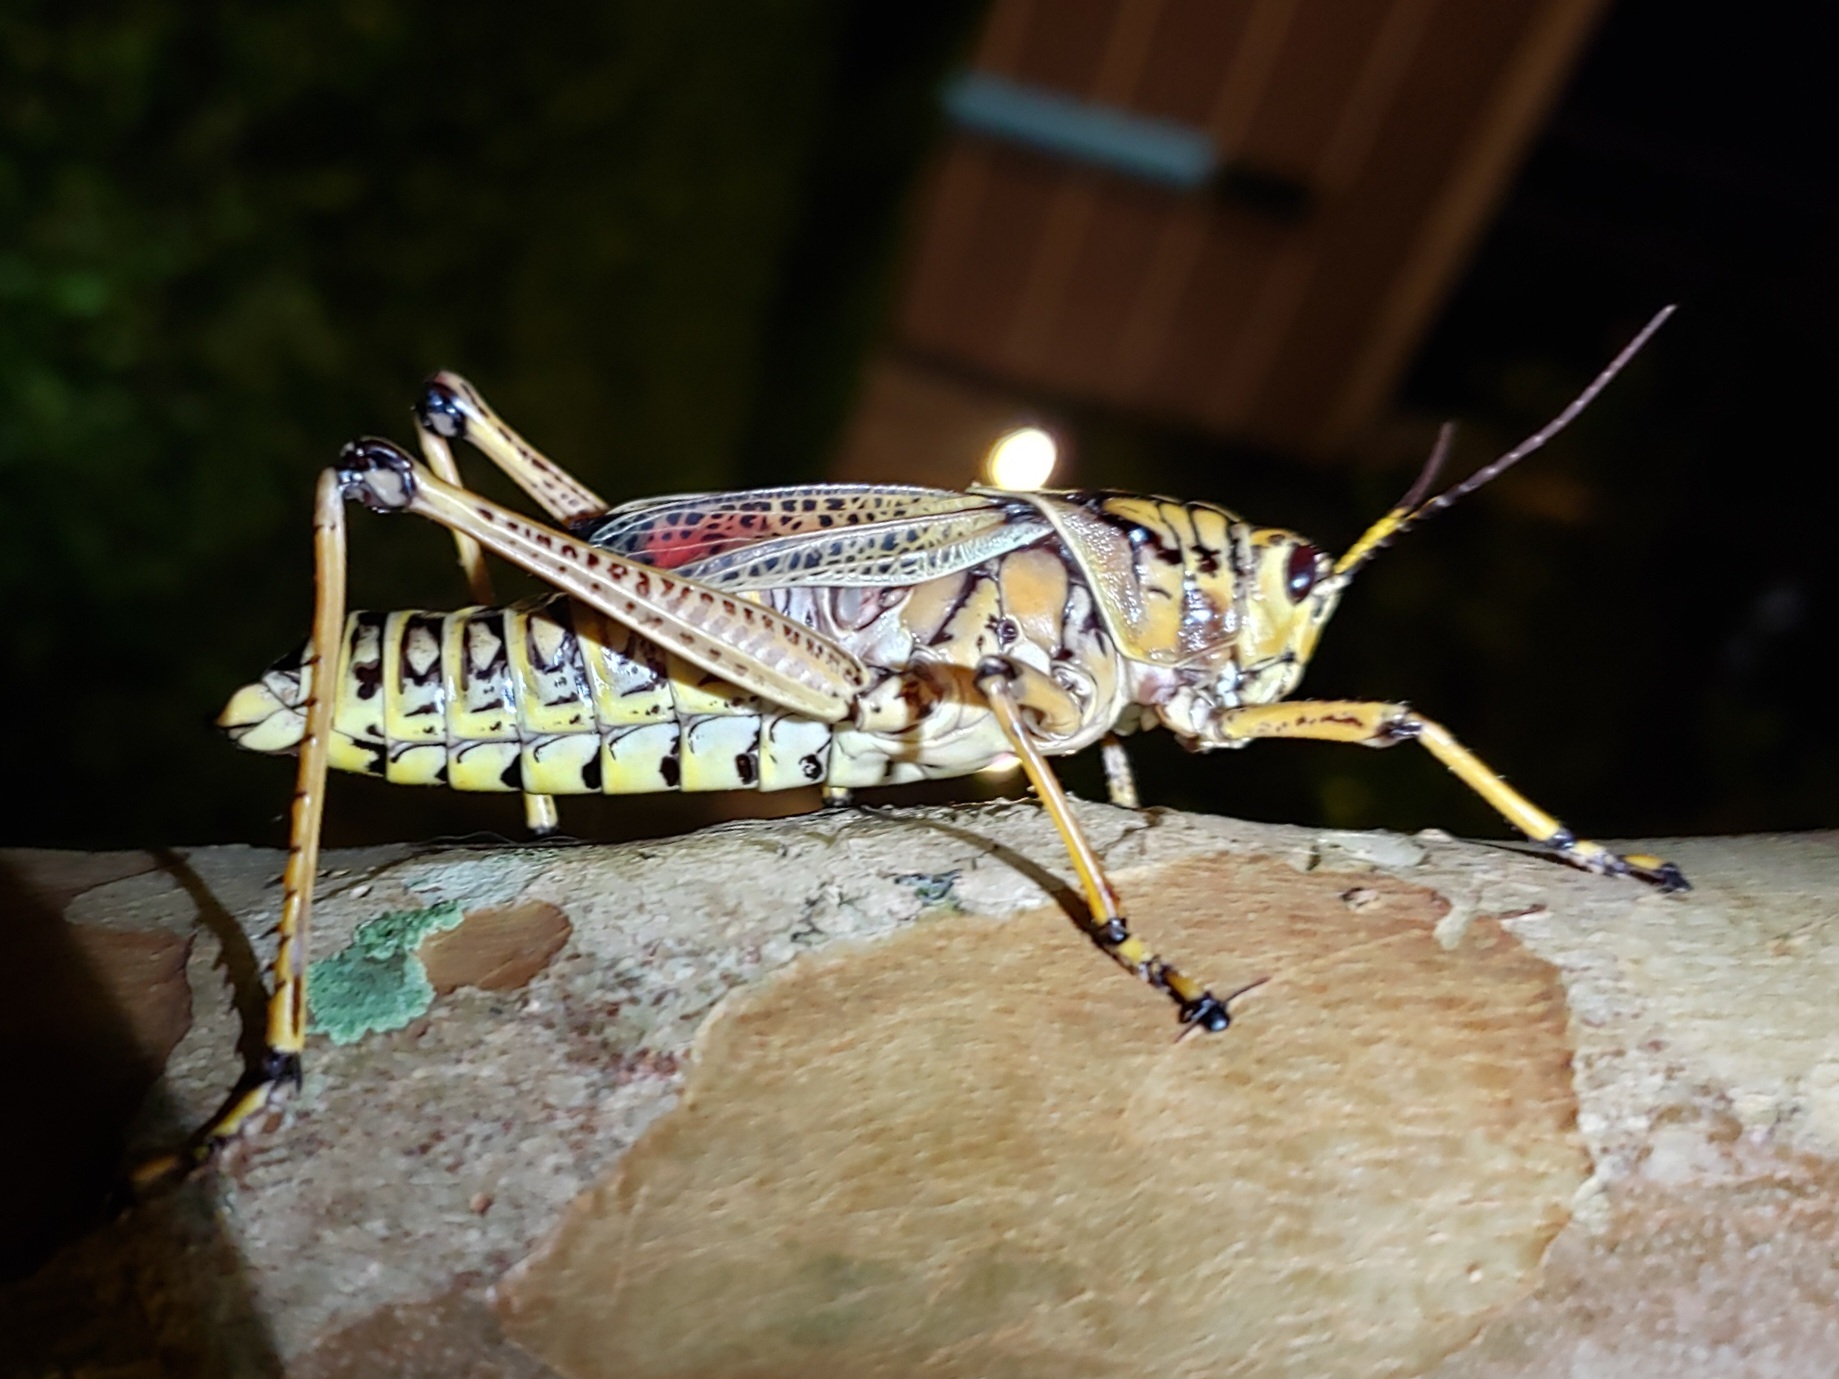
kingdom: Animalia
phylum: Arthropoda
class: Insecta
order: Orthoptera
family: Romaleidae
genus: Romalea
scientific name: Romalea microptera
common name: Eastern lubber grasshopper
